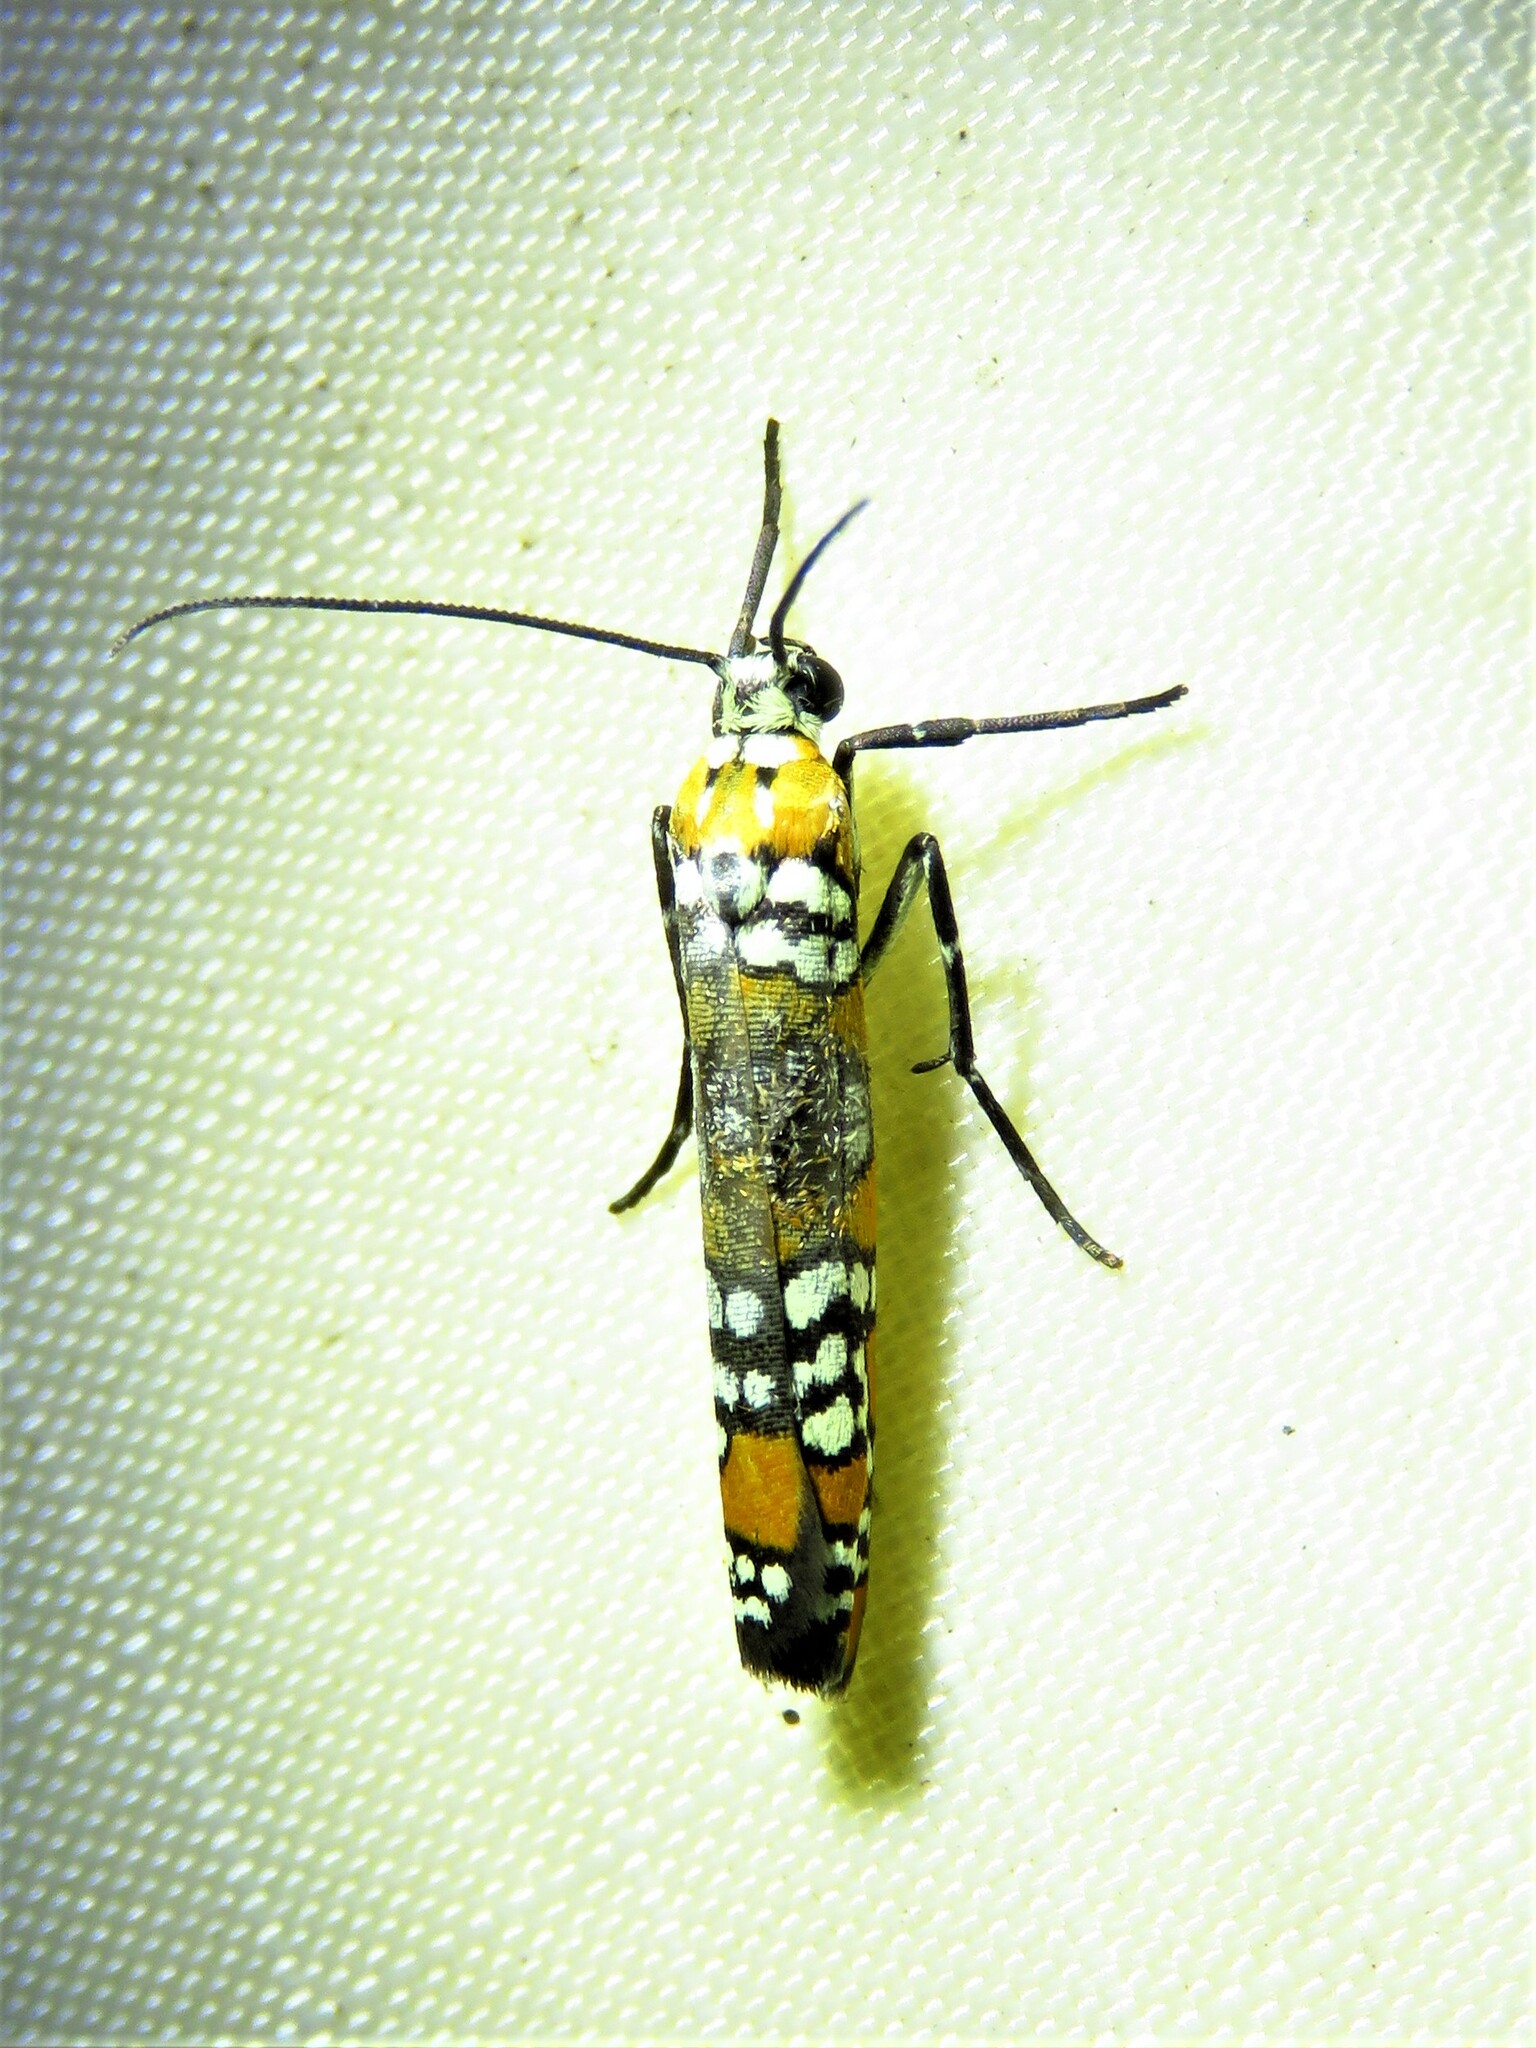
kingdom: Animalia
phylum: Arthropoda
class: Insecta
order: Lepidoptera
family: Attevidae
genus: Atteva
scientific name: Atteva punctella
